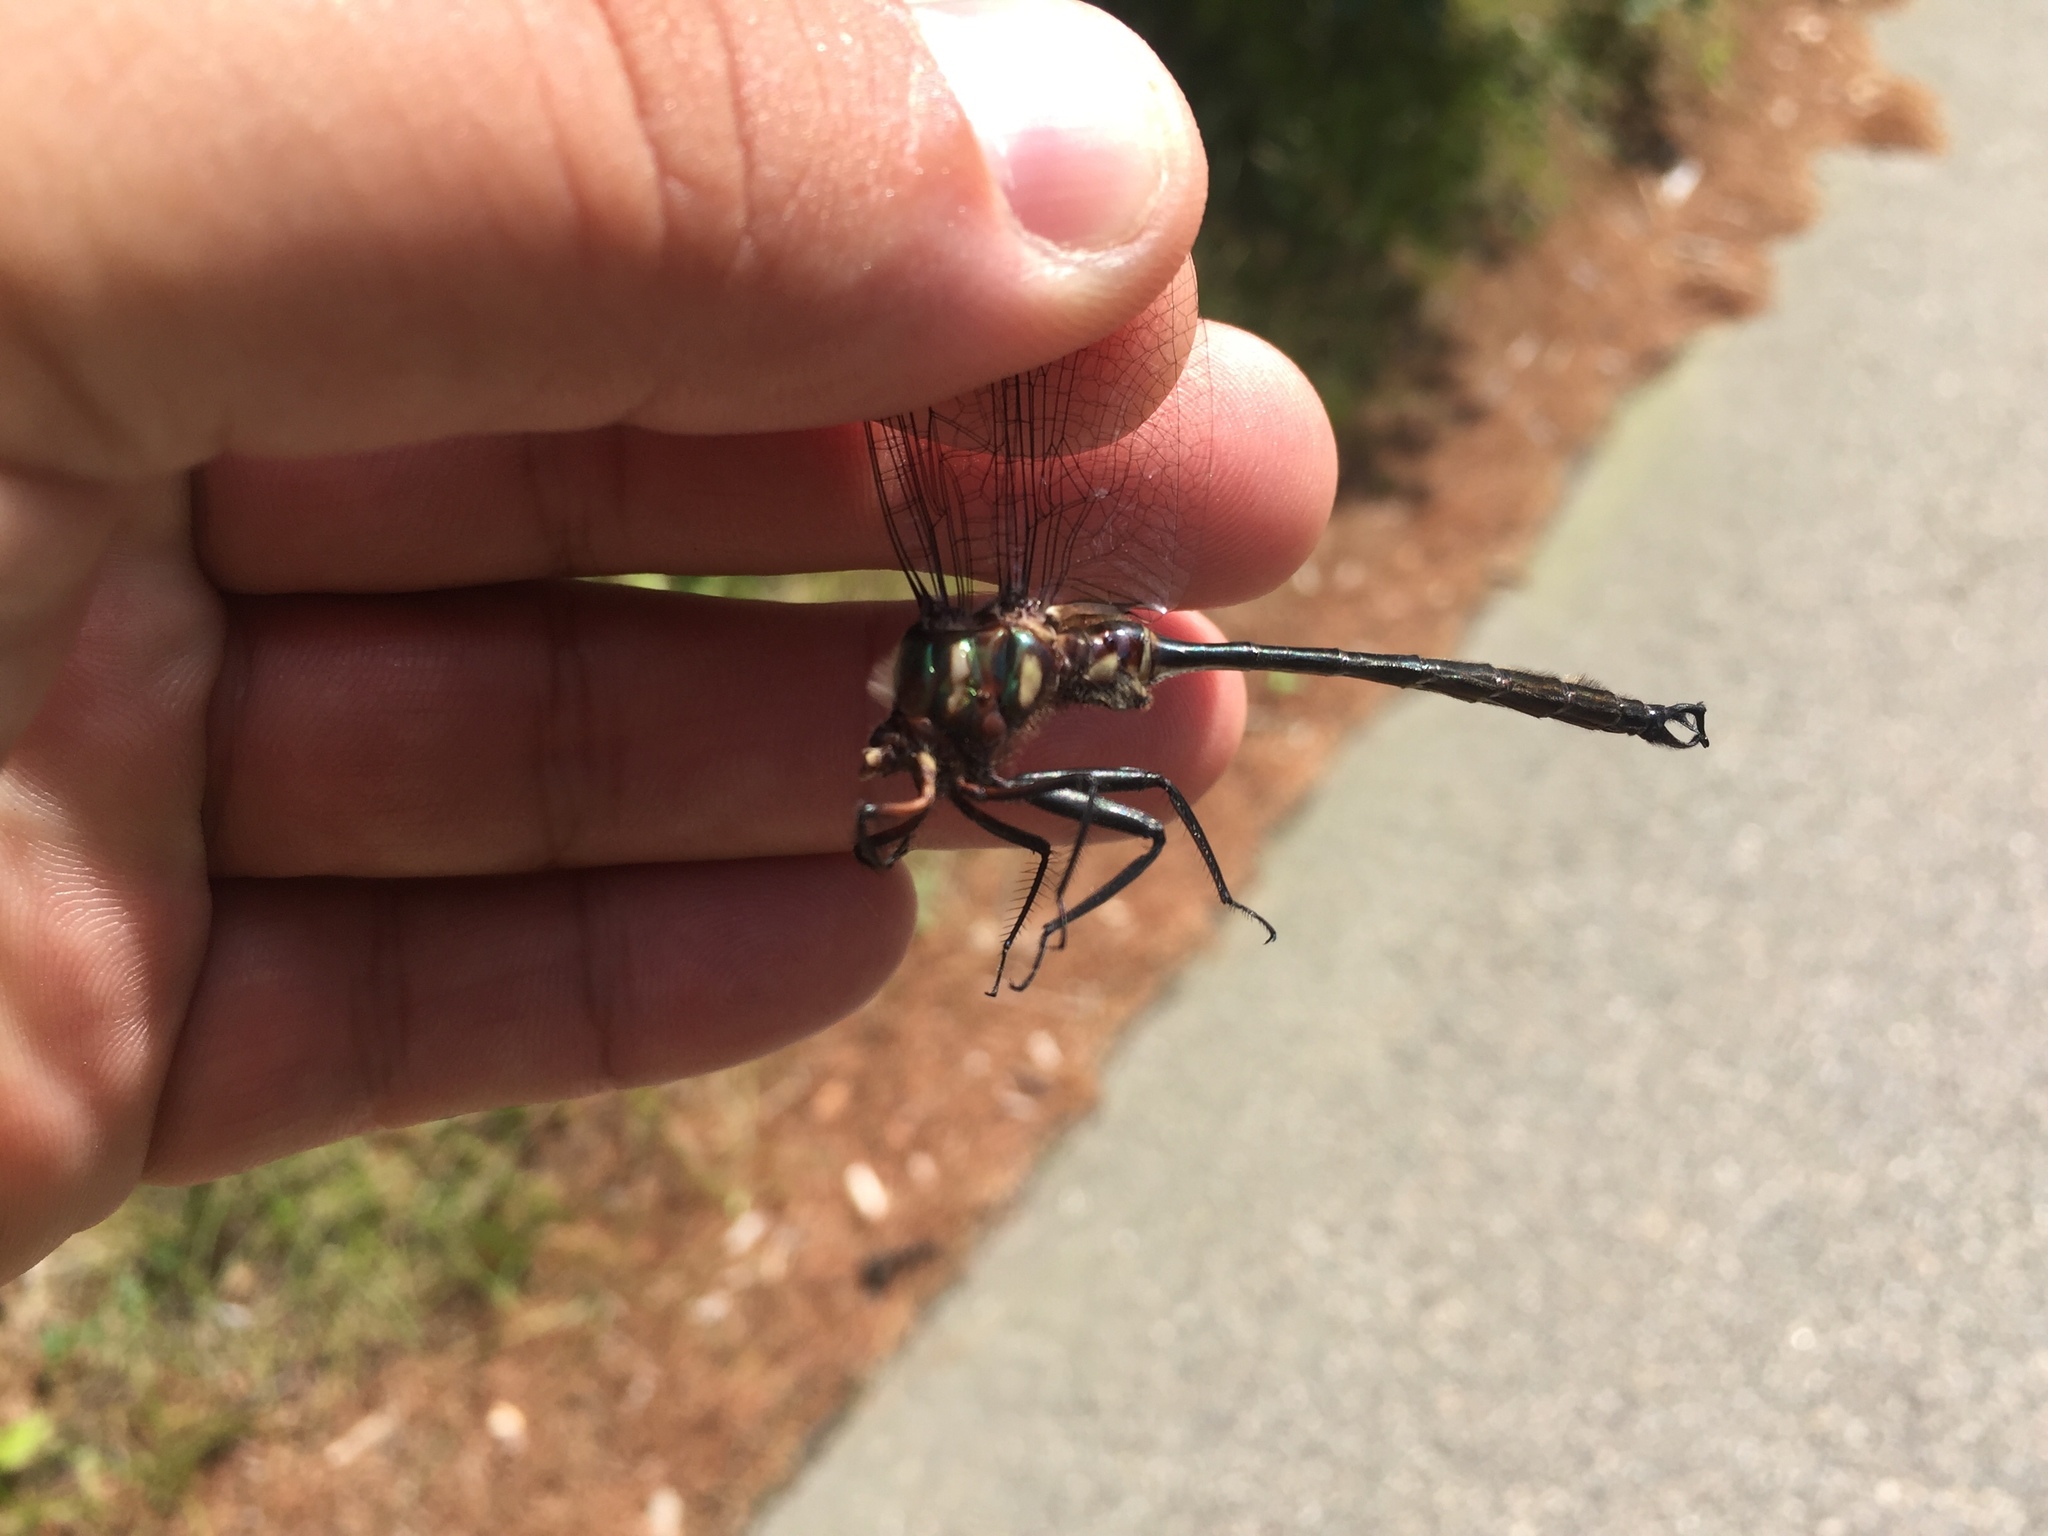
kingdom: Animalia
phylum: Arthropoda
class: Insecta
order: Odonata
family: Corduliidae
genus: Somatochlora
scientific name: Somatochlora tenebrosa
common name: Clamp-tipped emerald
